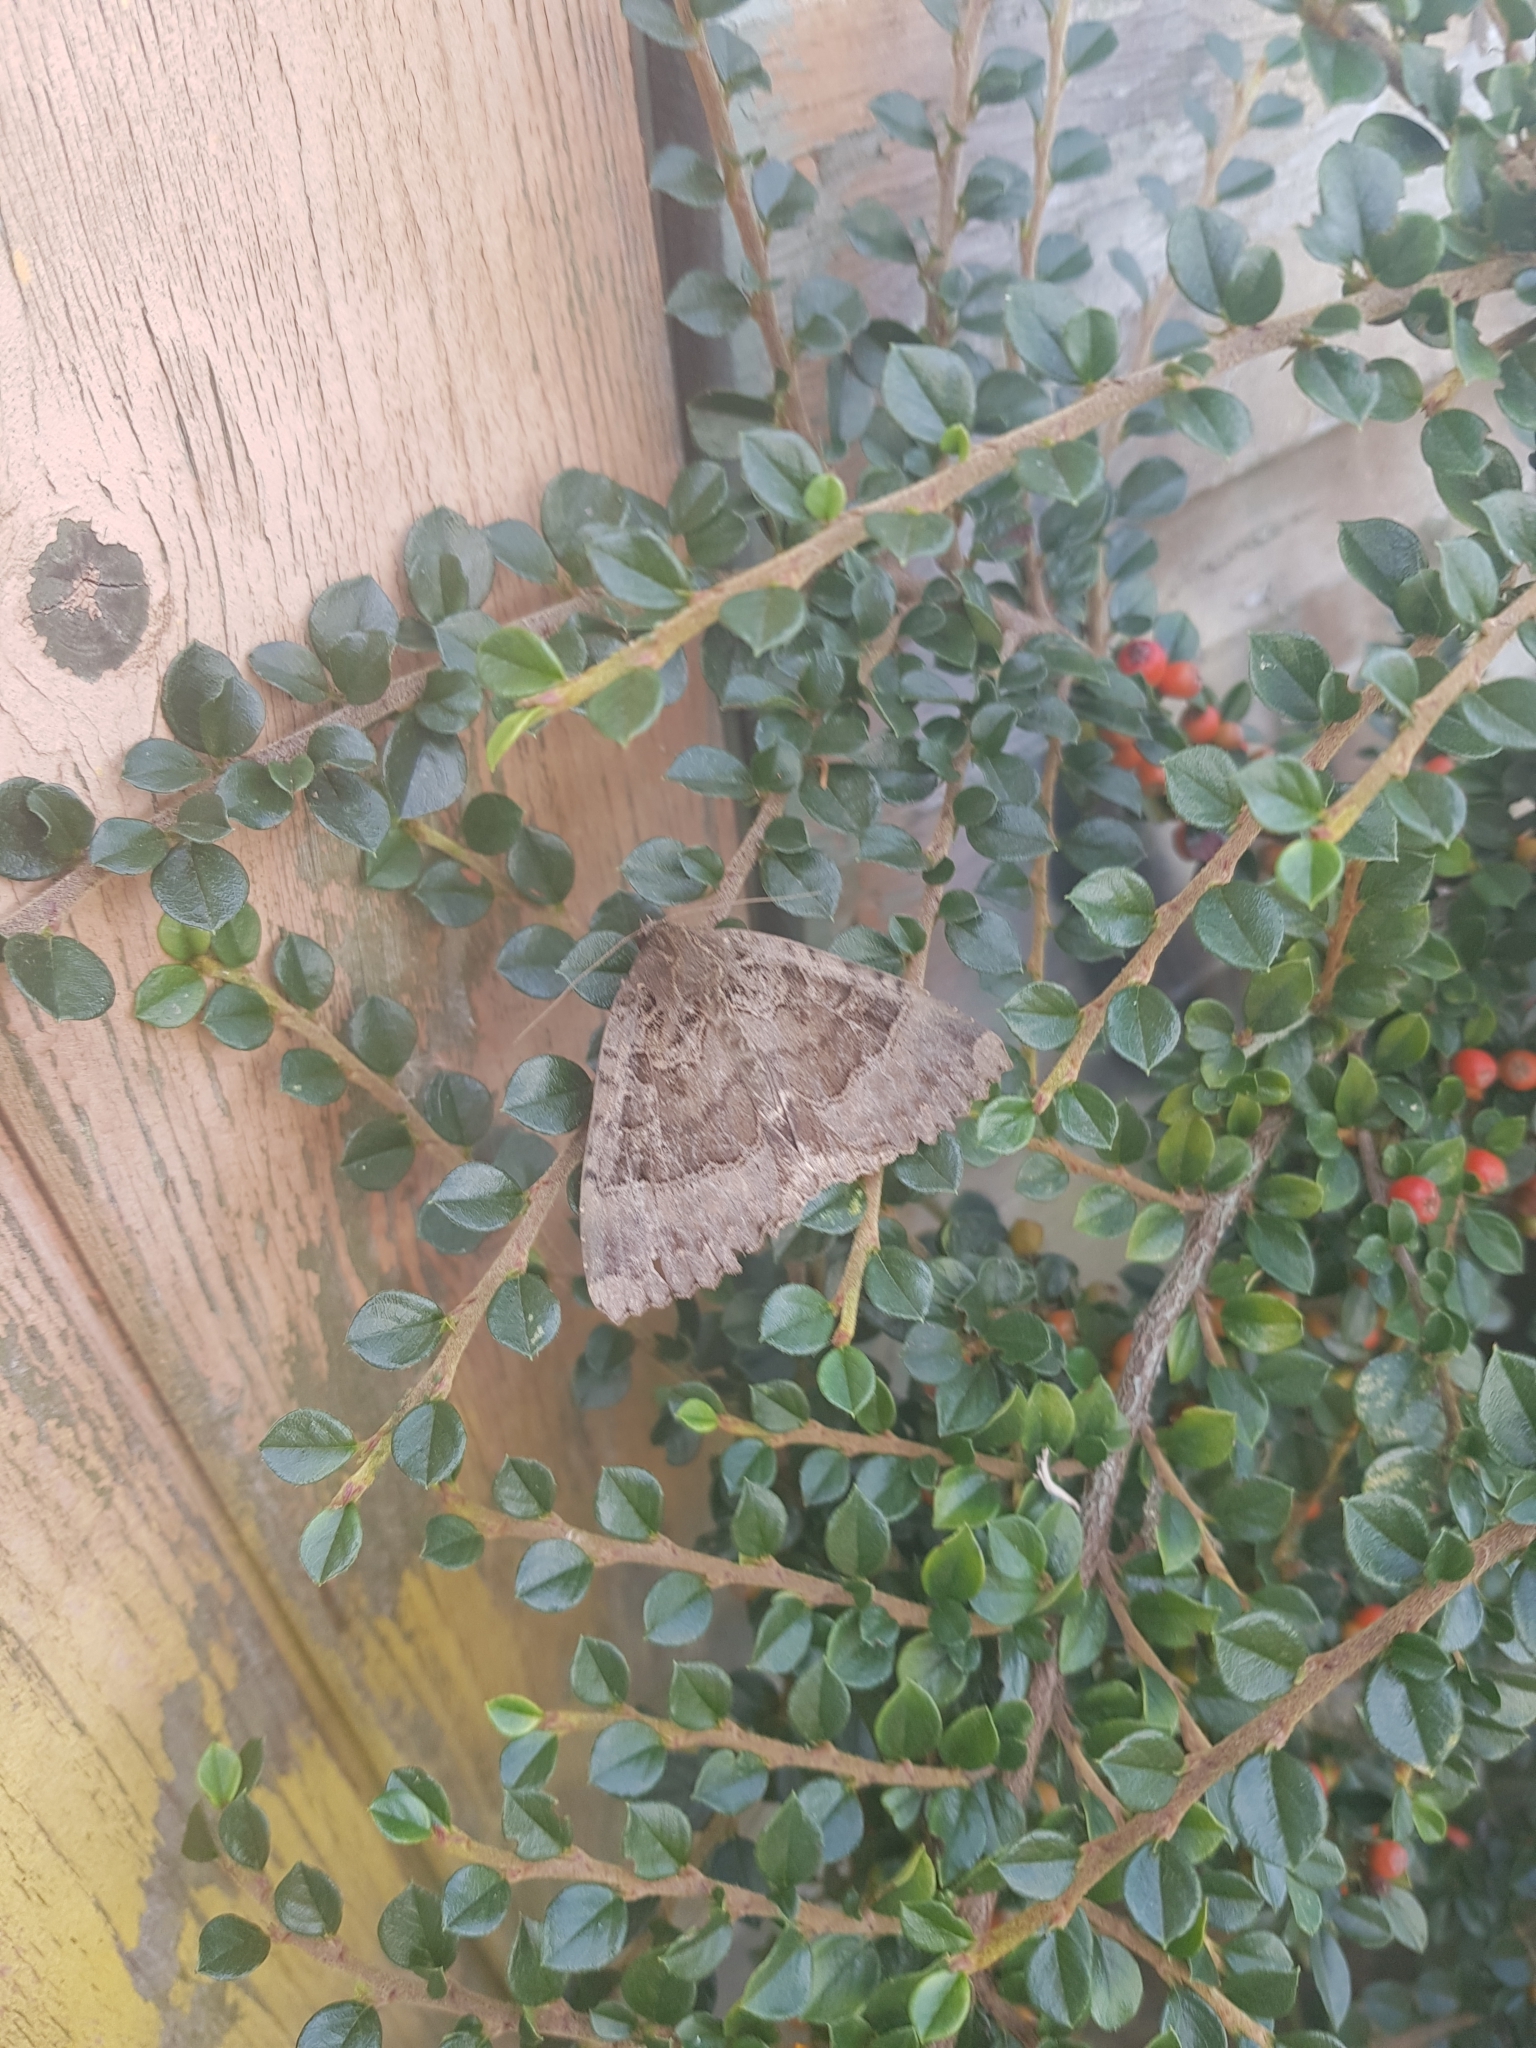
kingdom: Animalia
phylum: Arthropoda
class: Insecta
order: Lepidoptera
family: Noctuidae
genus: Mormo
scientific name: Mormo maura
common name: Old lady
